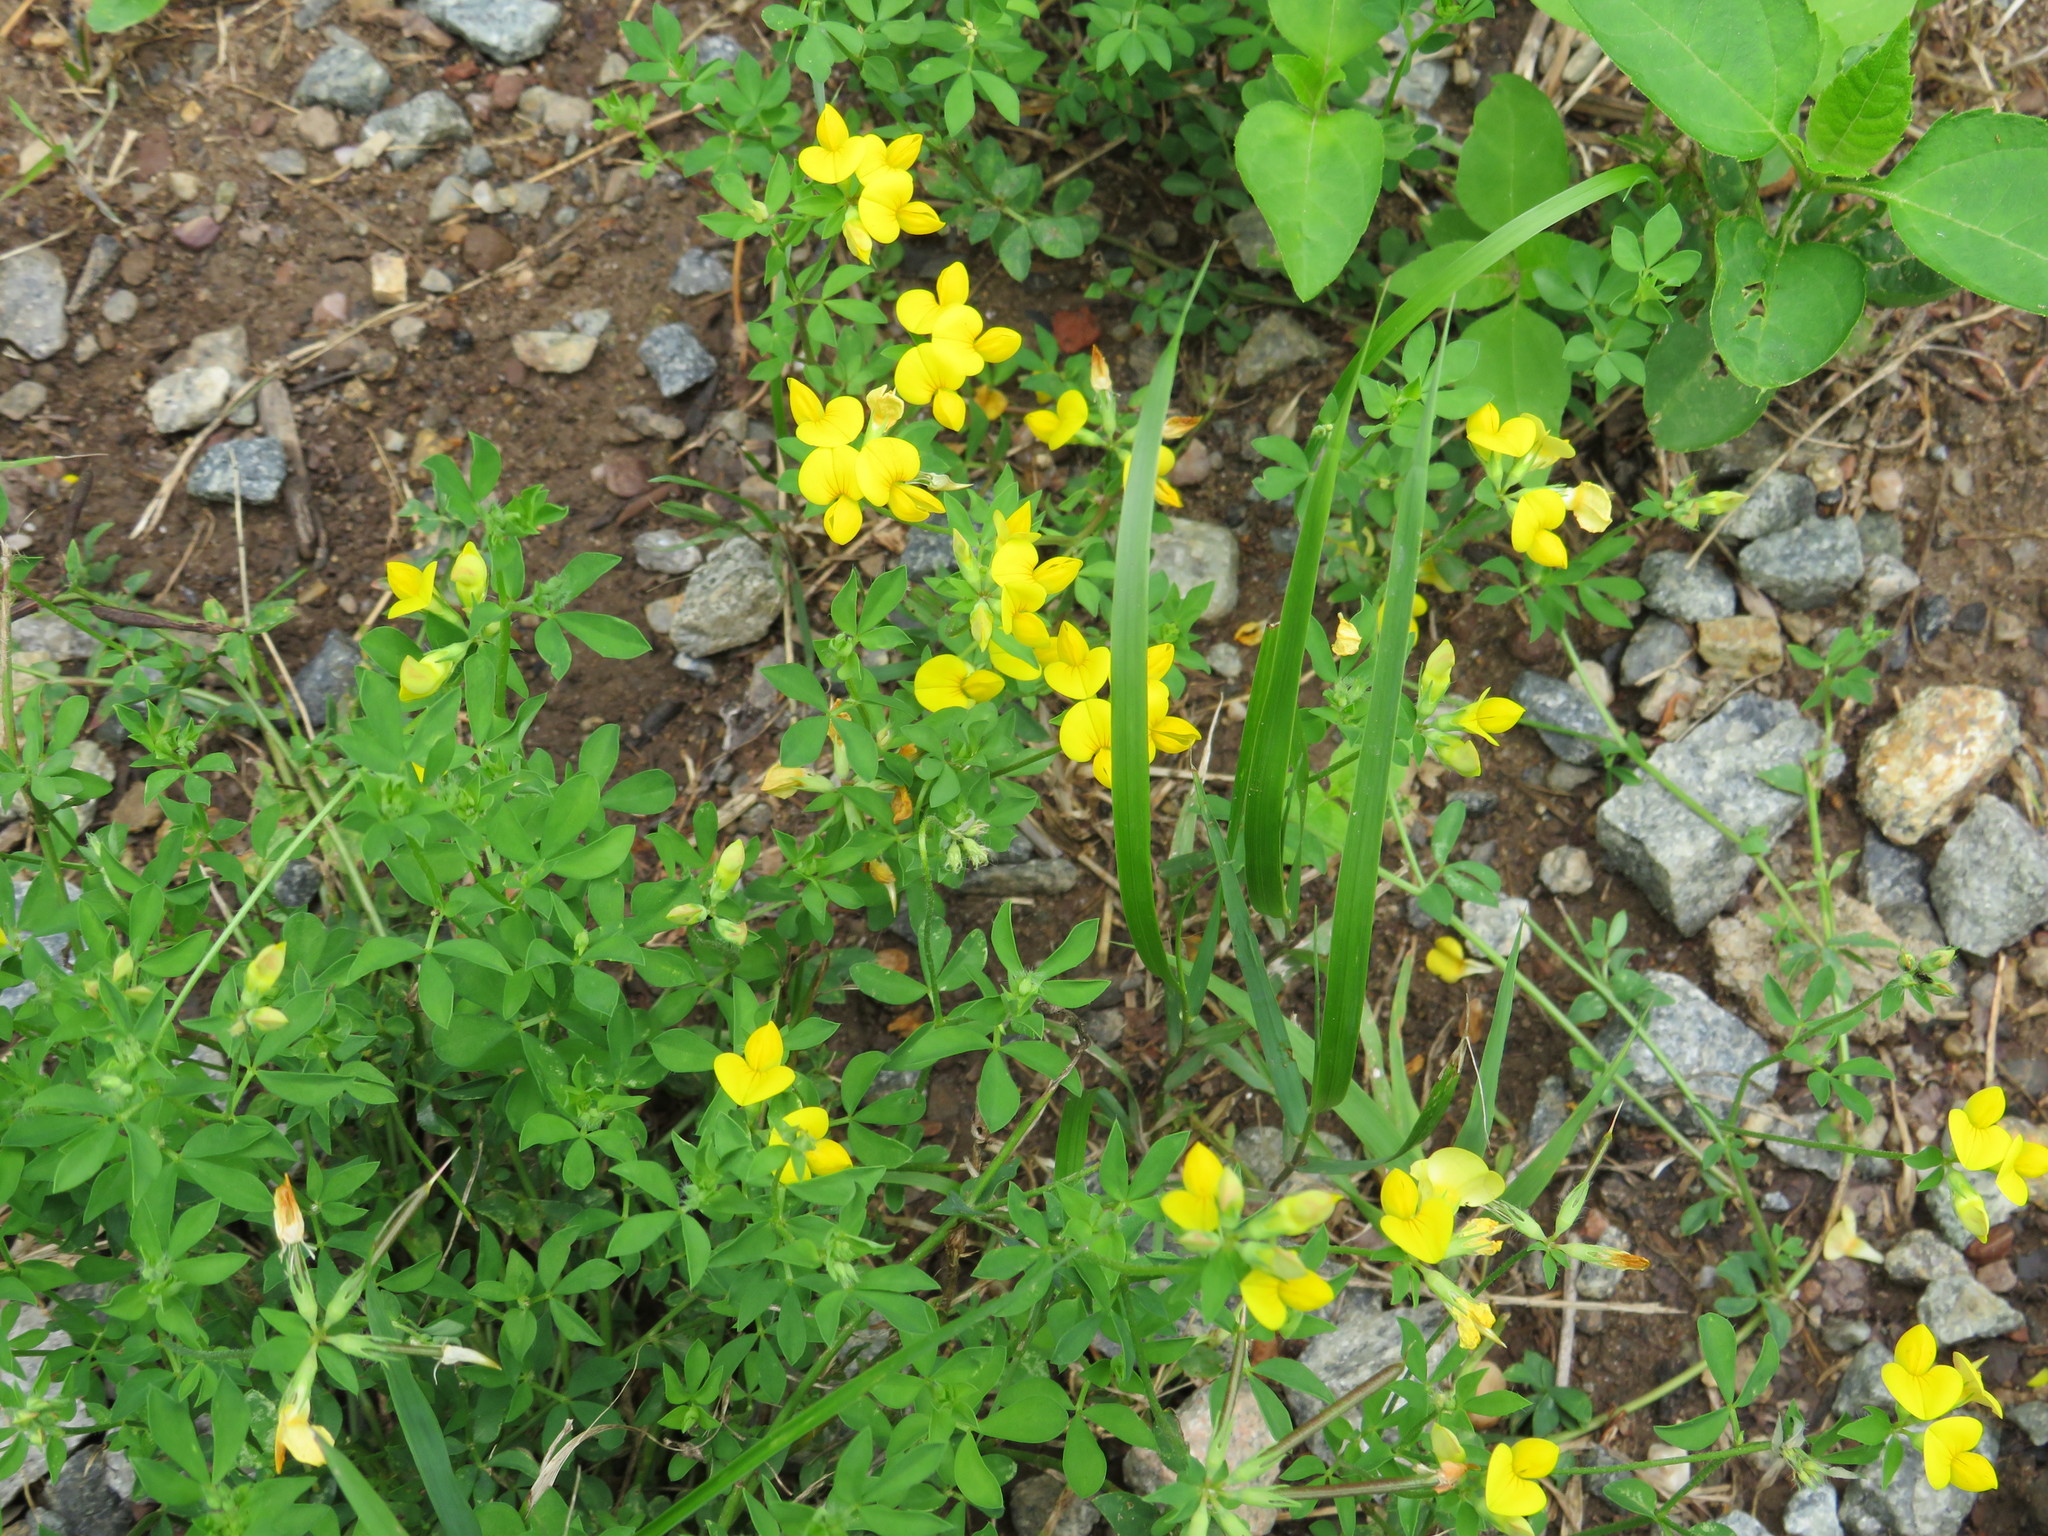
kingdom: Plantae
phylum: Tracheophyta
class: Magnoliopsida
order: Fabales
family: Fabaceae
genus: Lotus
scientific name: Lotus corniculatus
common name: Common bird's-foot-trefoil
